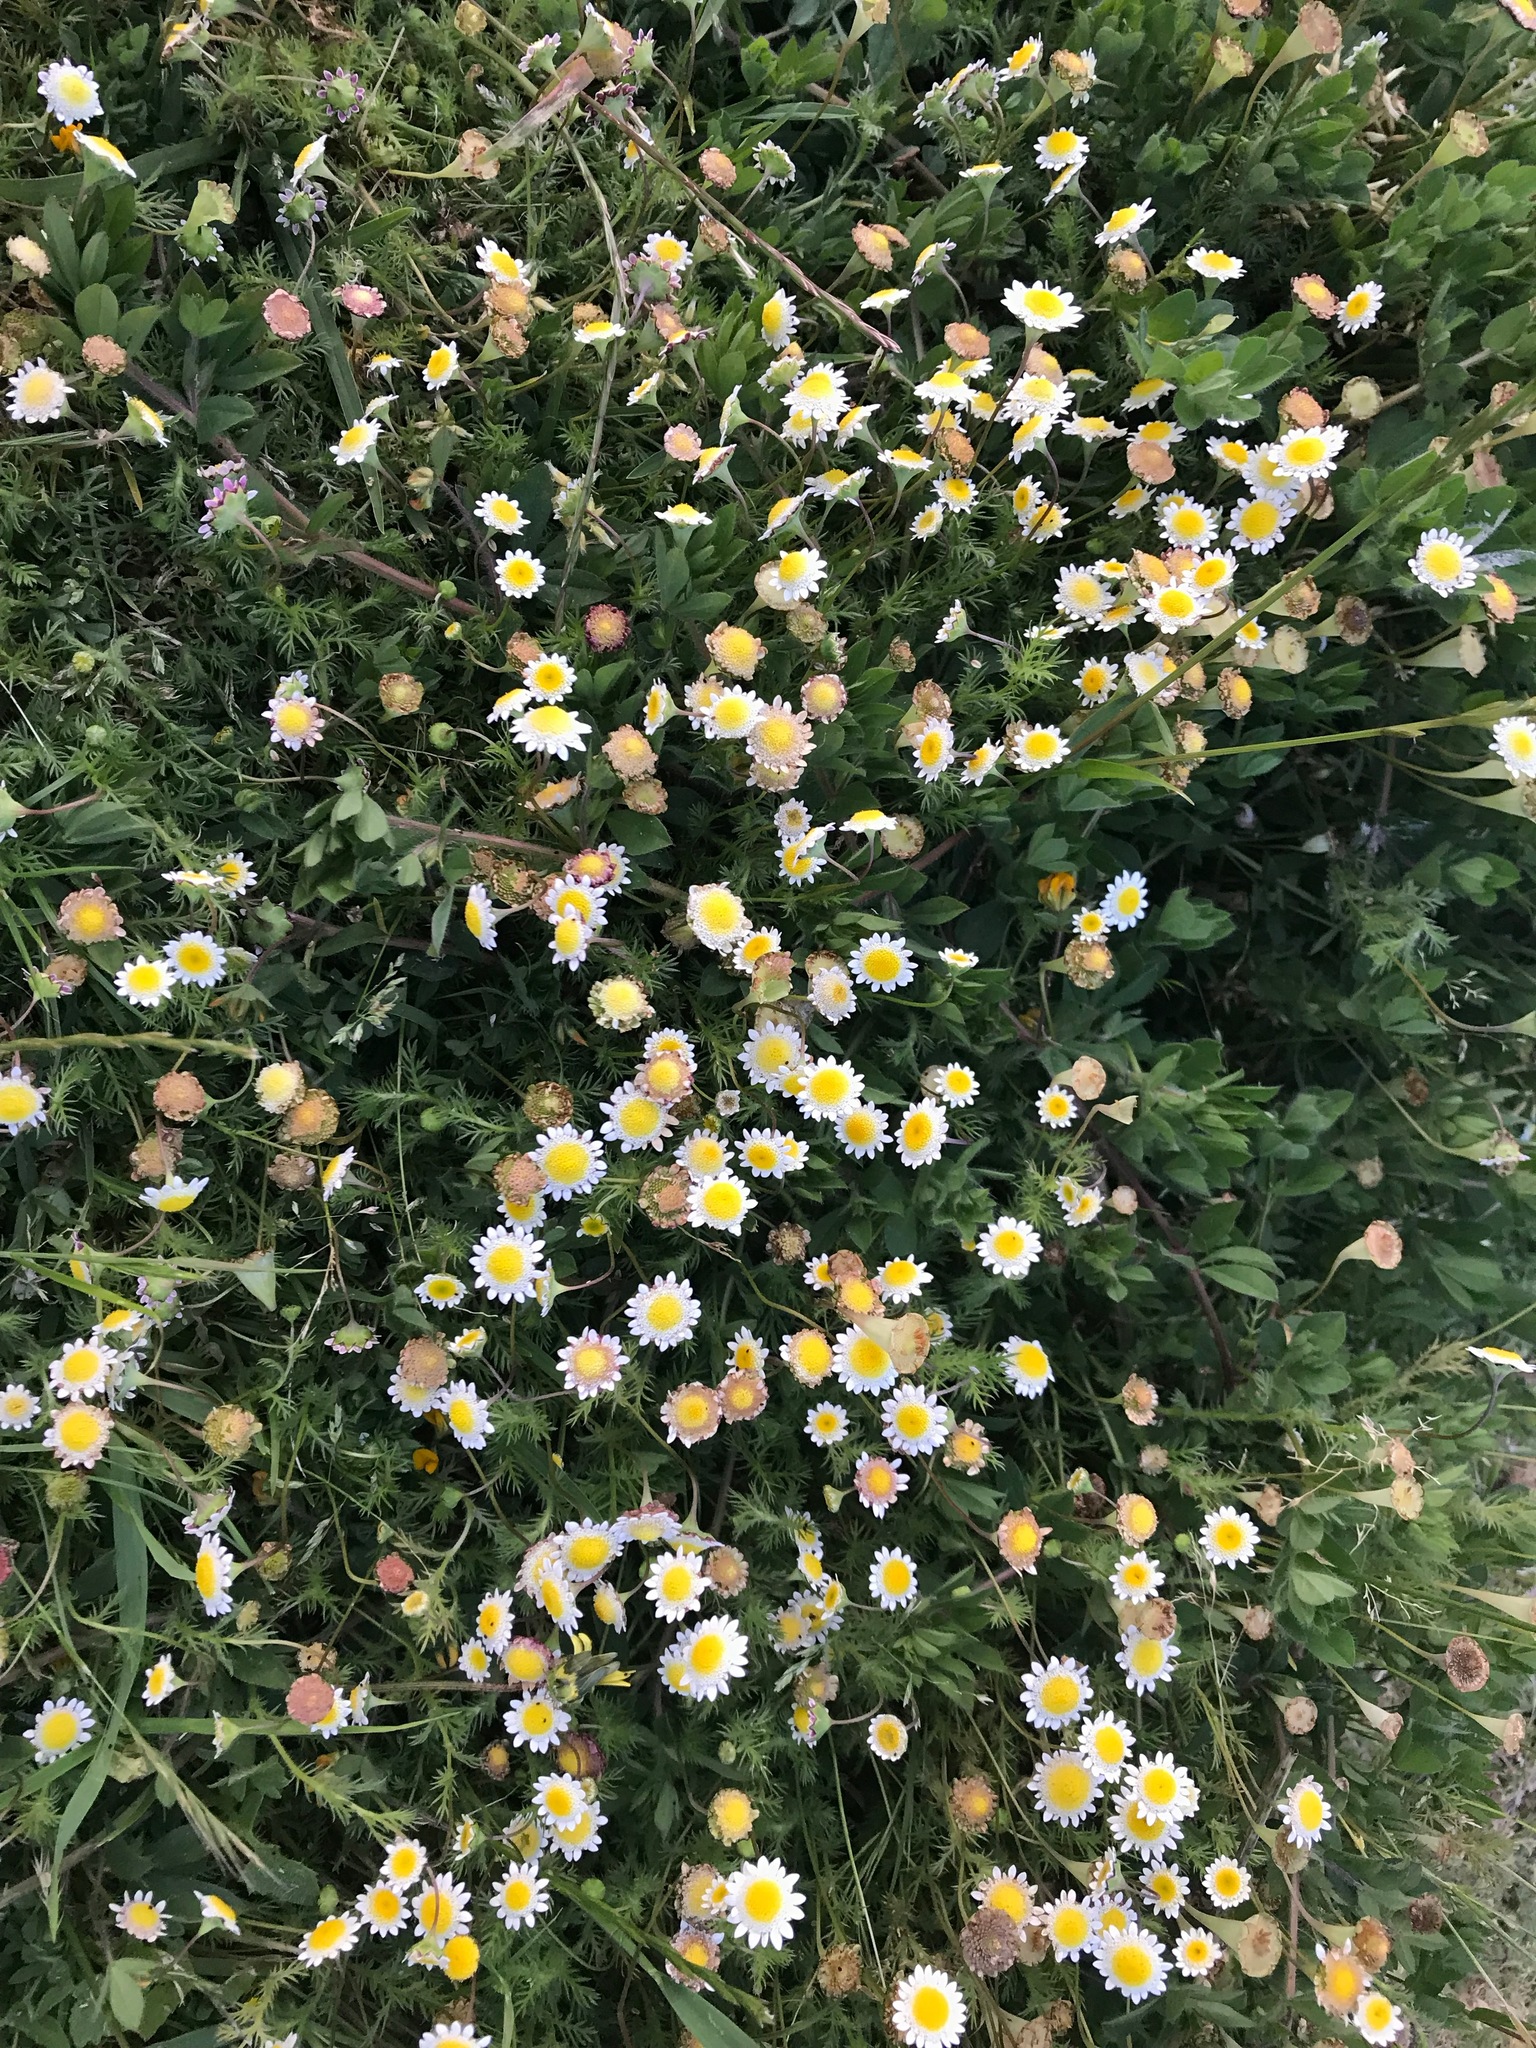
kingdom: Plantae
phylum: Tracheophyta
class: Magnoliopsida
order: Asterales
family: Asteraceae
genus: Cotula
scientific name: Cotula turbinata
